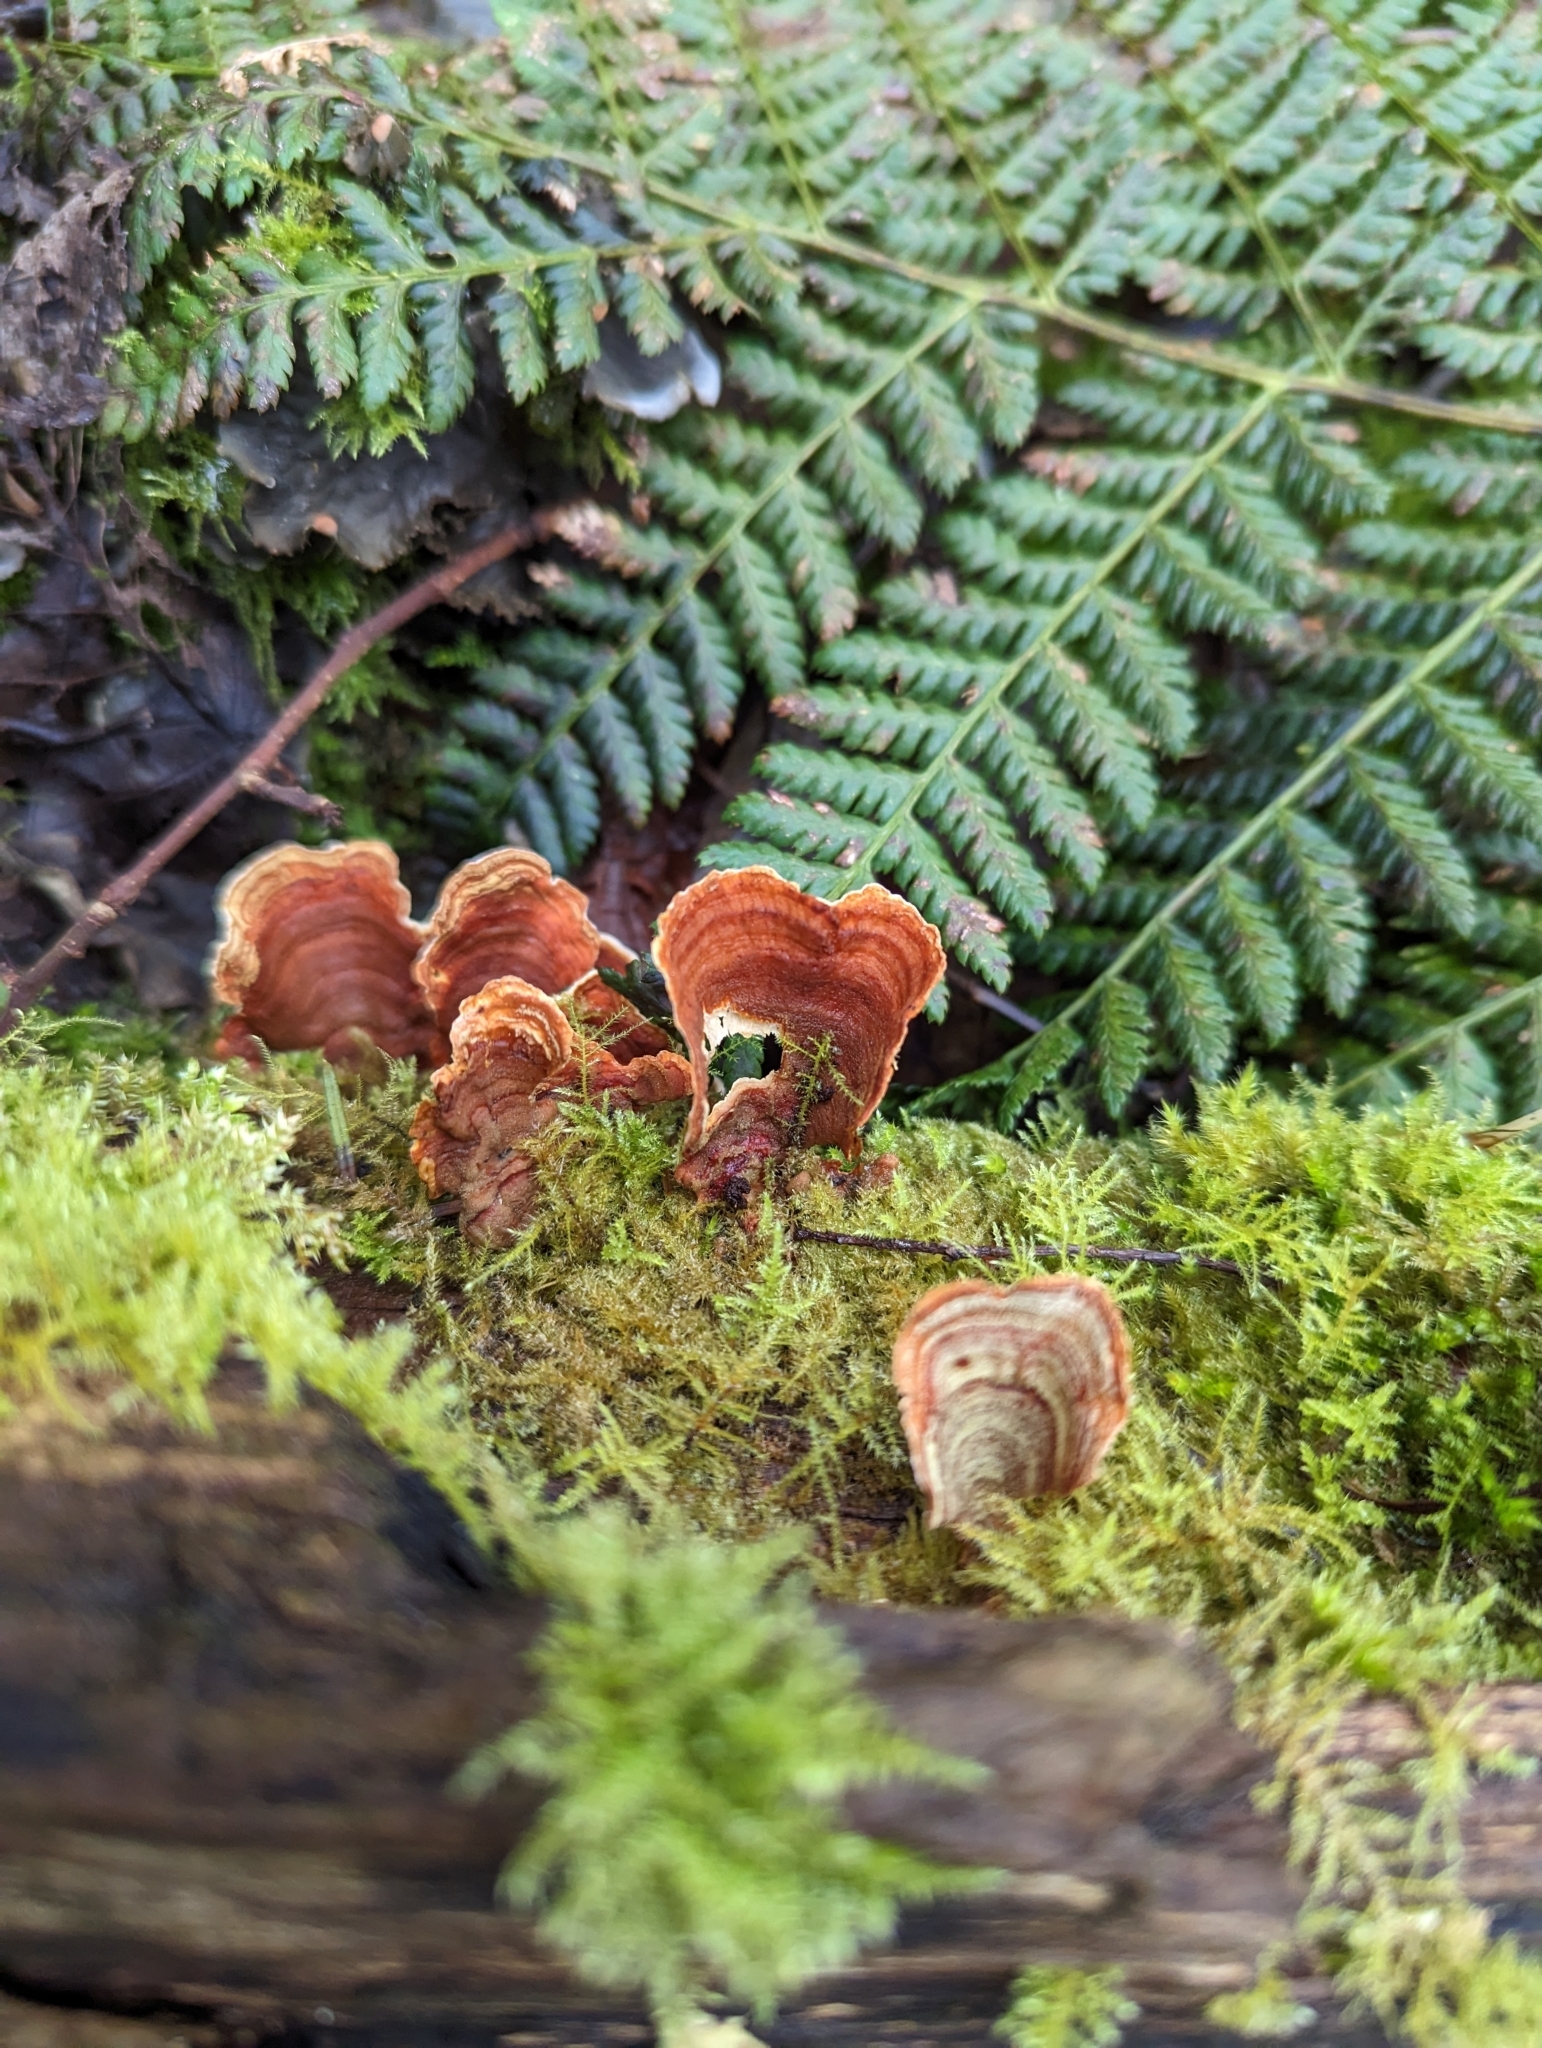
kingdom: Fungi
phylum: Basidiomycota
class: Agaricomycetes
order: Russulales
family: Stereaceae
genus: Stereum
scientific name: Stereum subtomentosum
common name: Yellowing curtain crust
